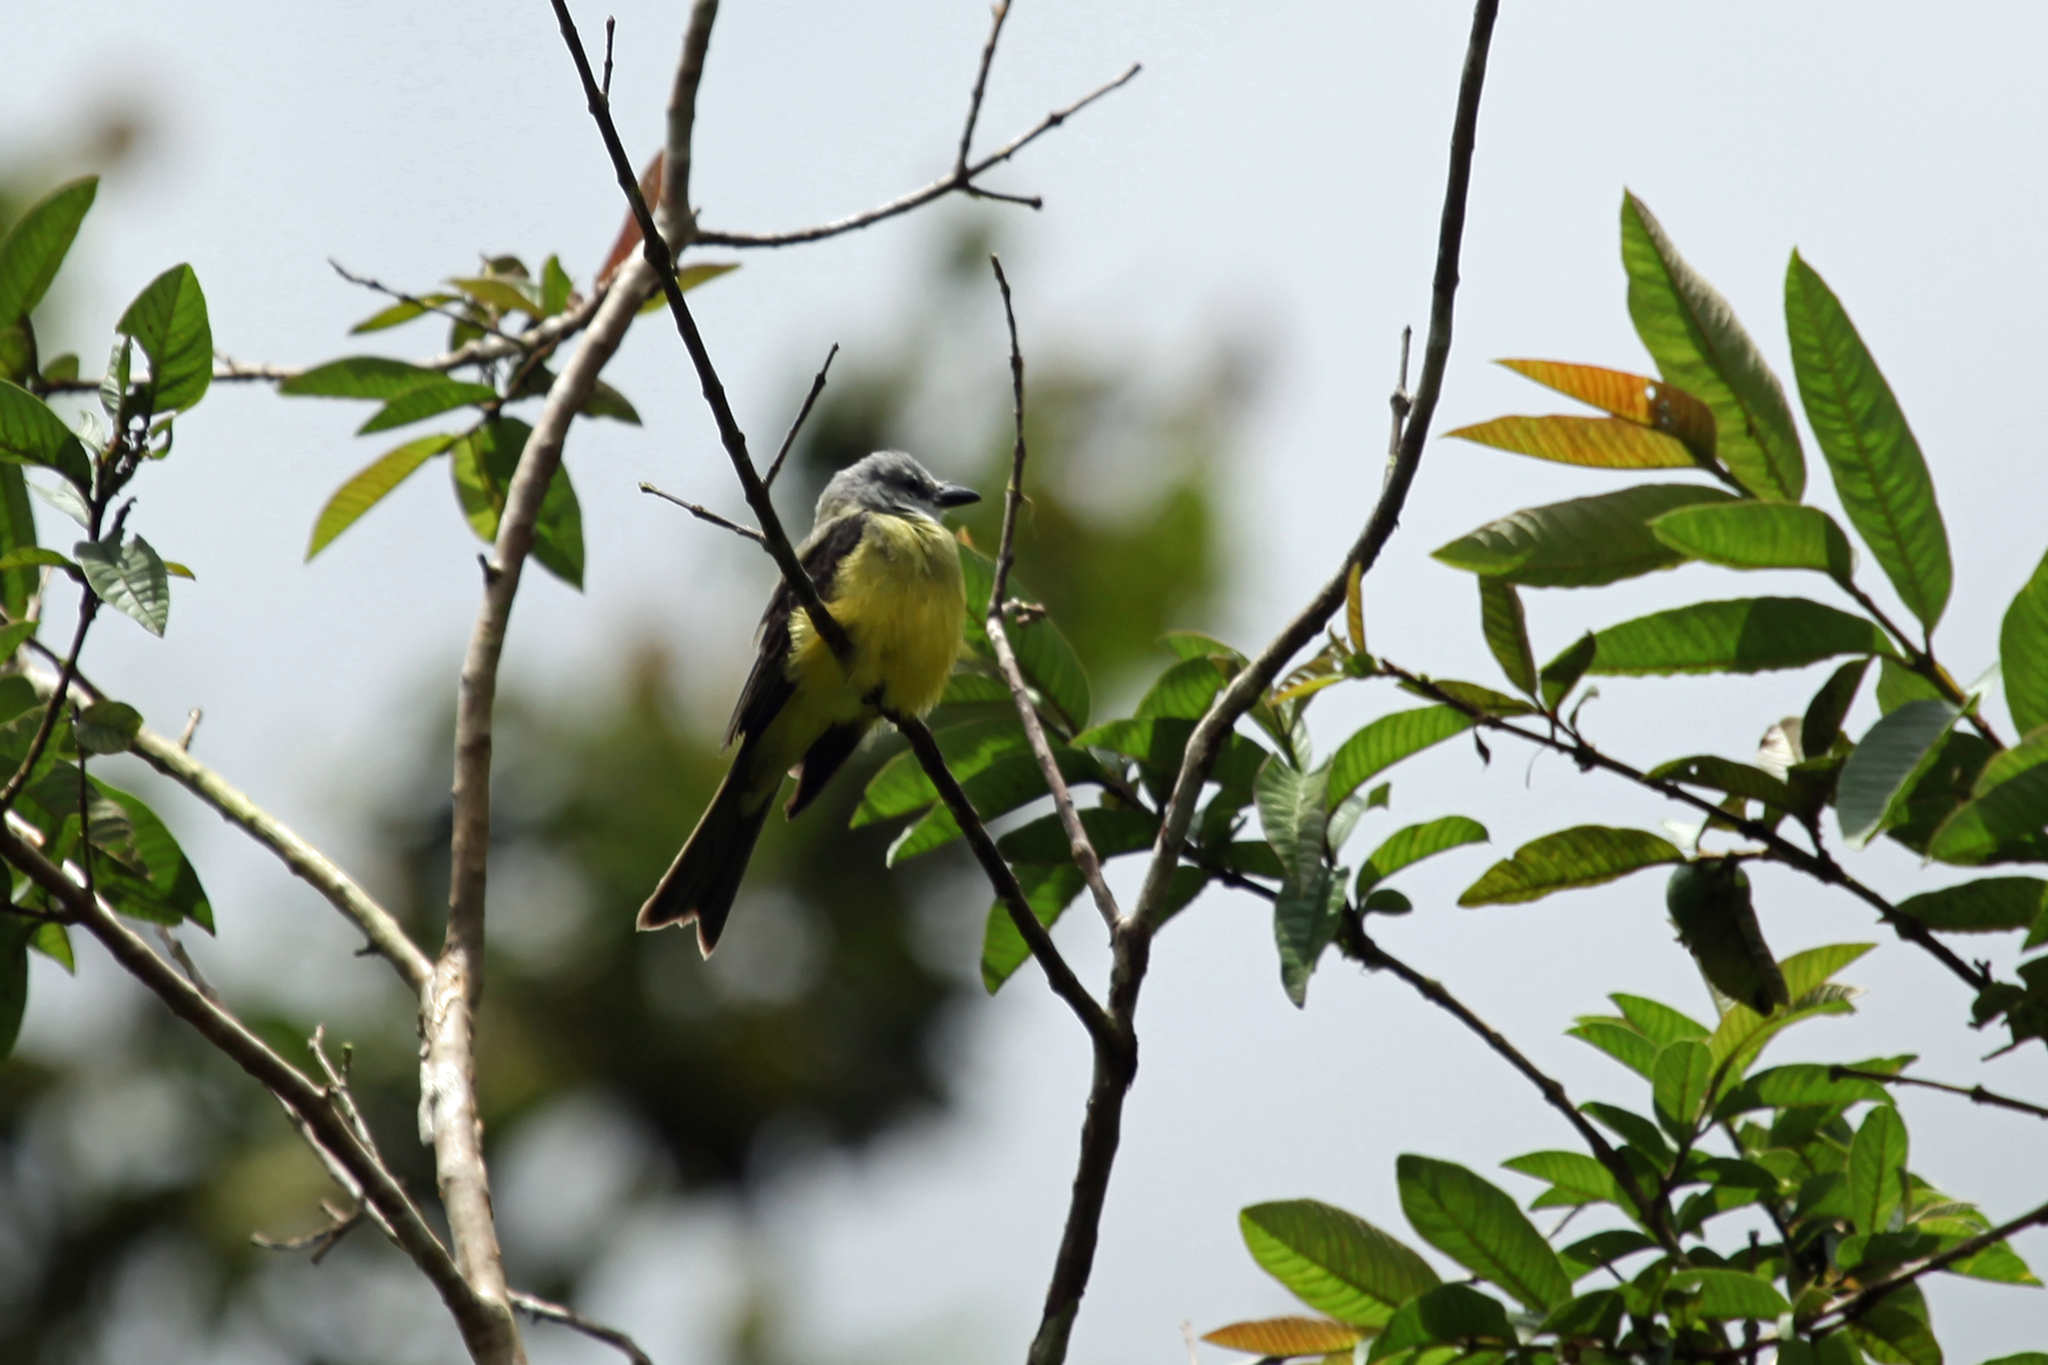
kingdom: Animalia
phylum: Chordata
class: Aves
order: Passeriformes
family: Tyrannidae
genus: Tyrannus
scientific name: Tyrannus melancholicus
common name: Tropical kingbird
